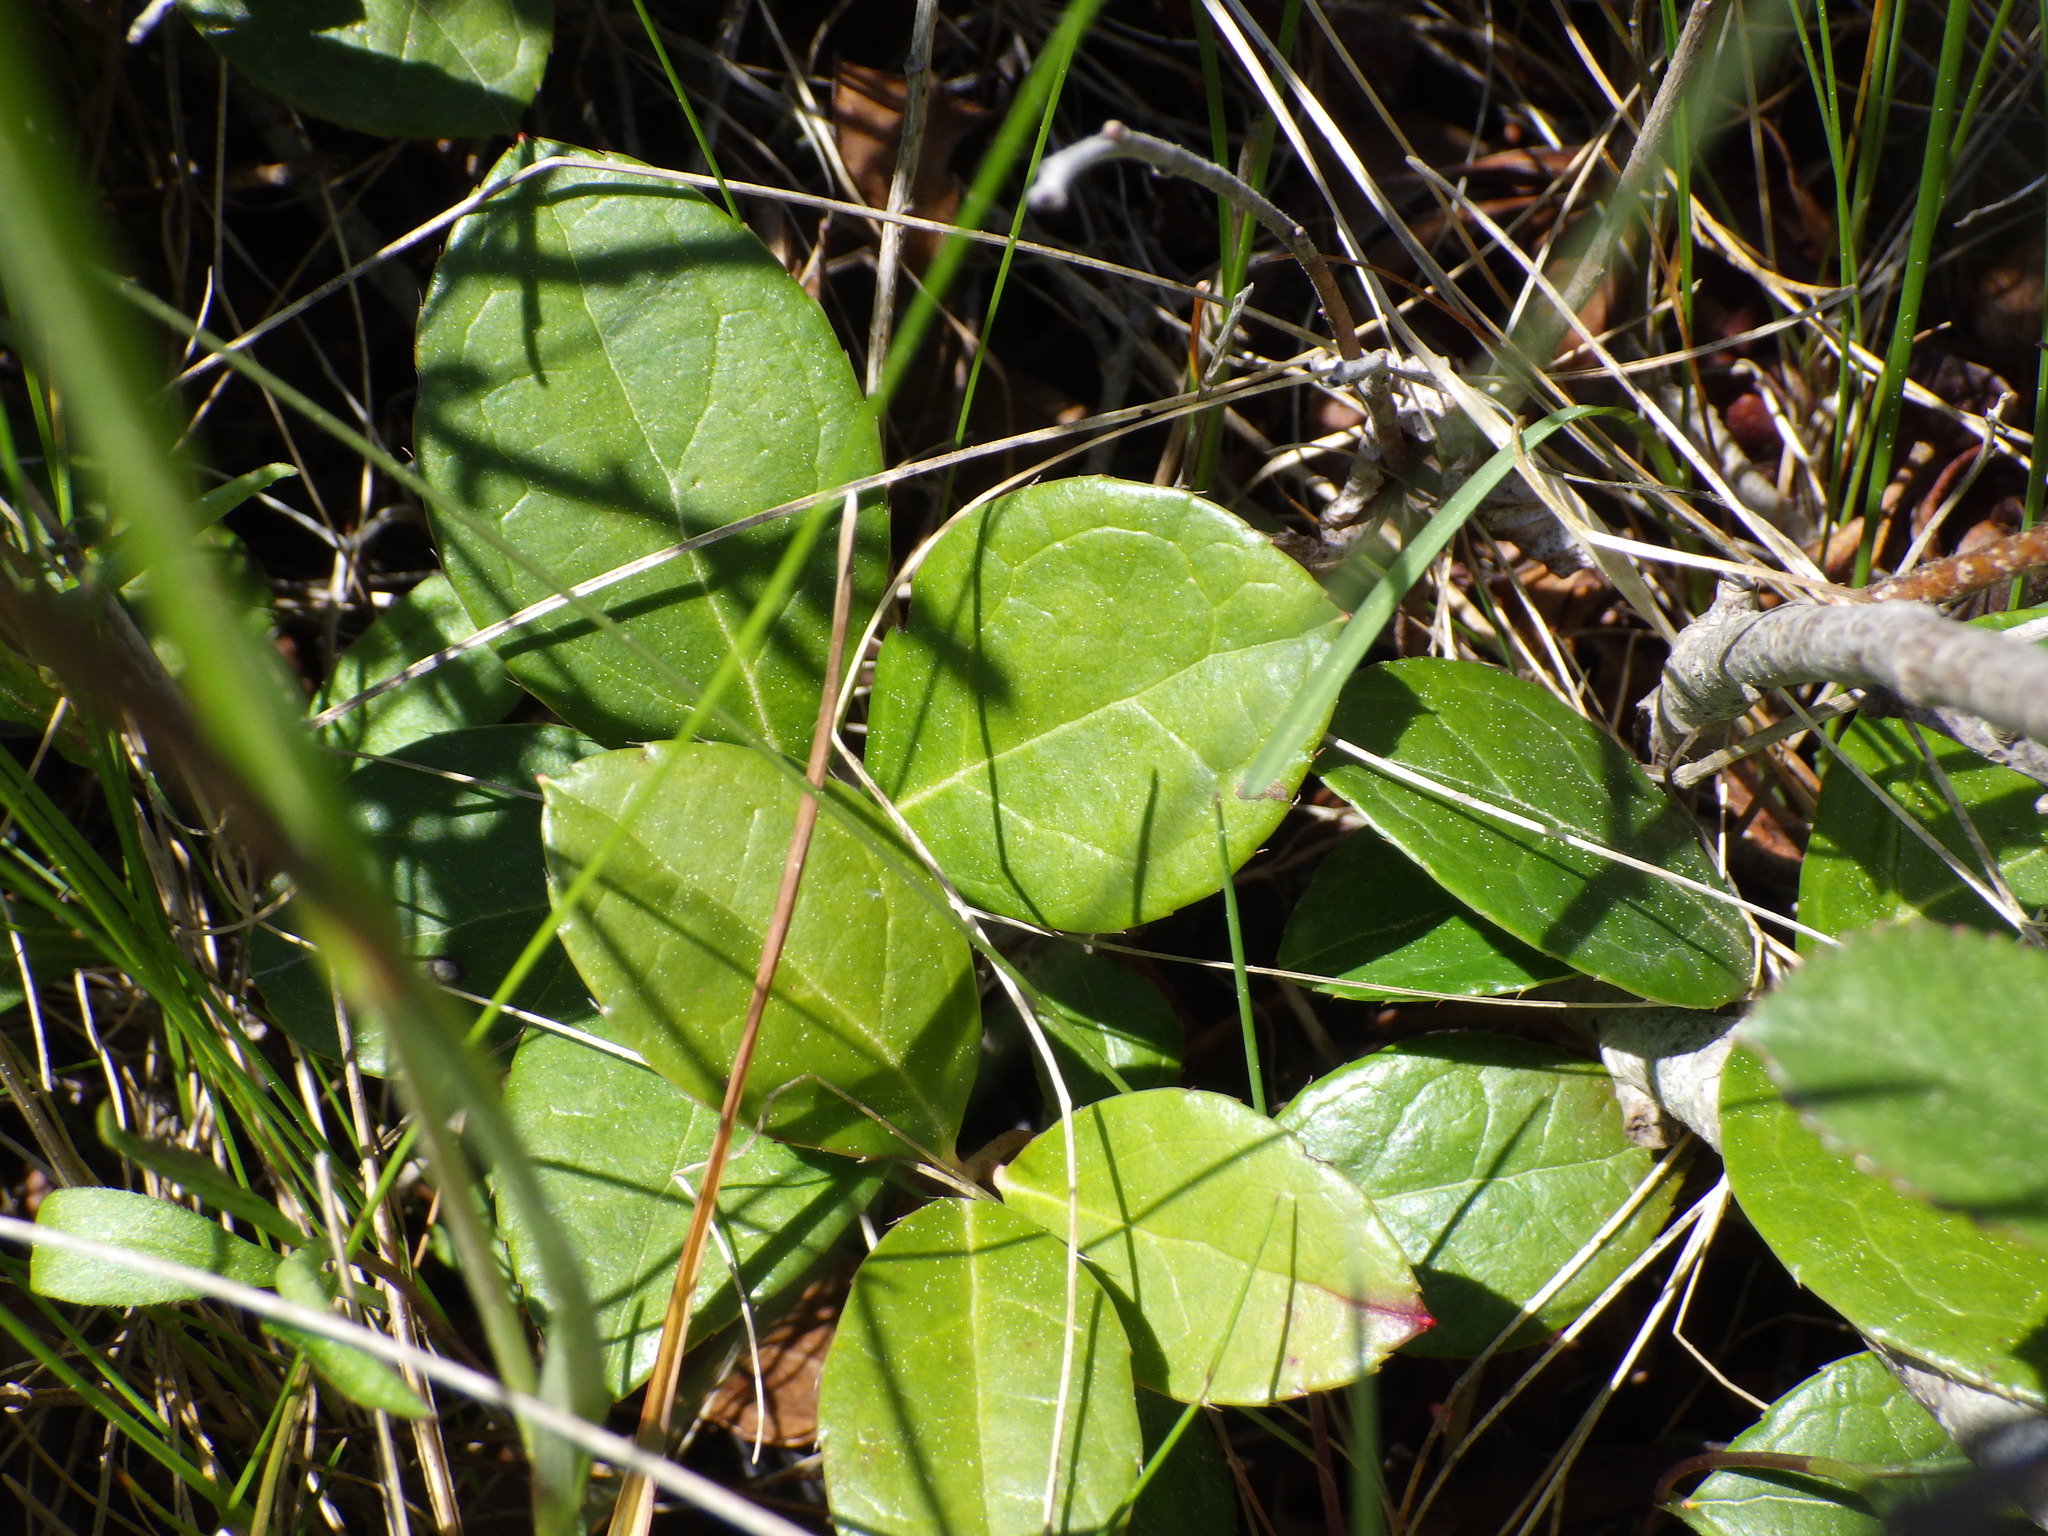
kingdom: Plantae
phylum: Tracheophyta
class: Magnoliopsida
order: Ericales
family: Ericaceae
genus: Gaultheria
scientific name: Gaultheria procumbens
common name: Checkerberry
